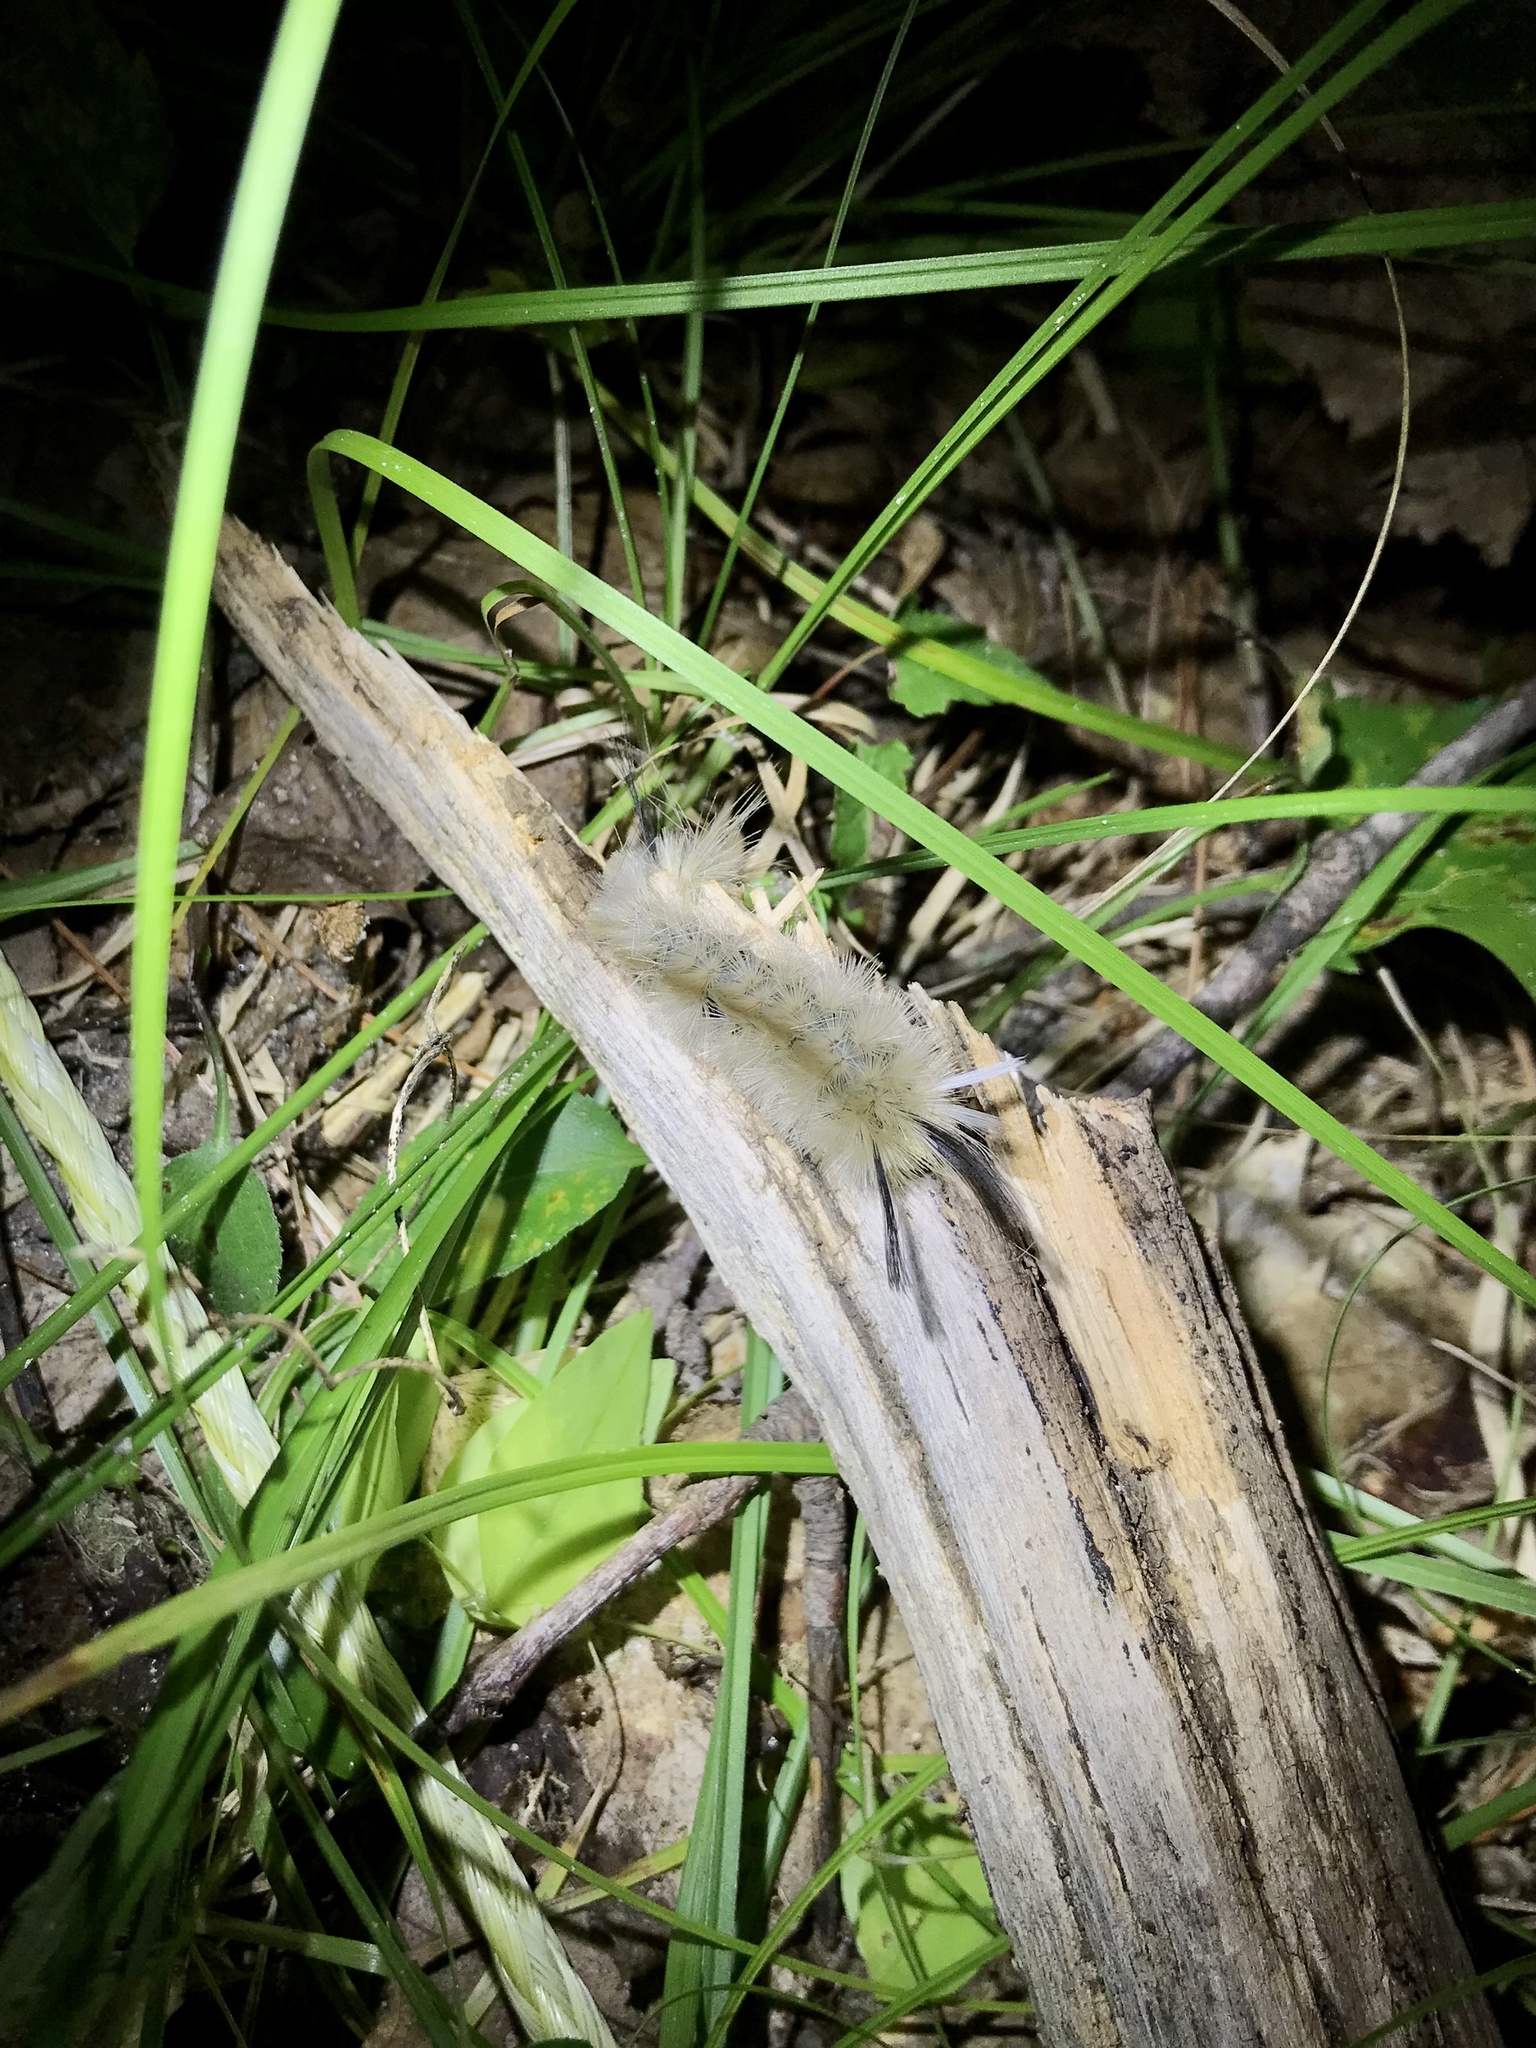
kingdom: Animalia
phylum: Arthropoda
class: Insecta
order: Lepidoptera
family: Erebidae
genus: Halysidota
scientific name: Halysidota tessellaris
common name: Banded tussock moth
